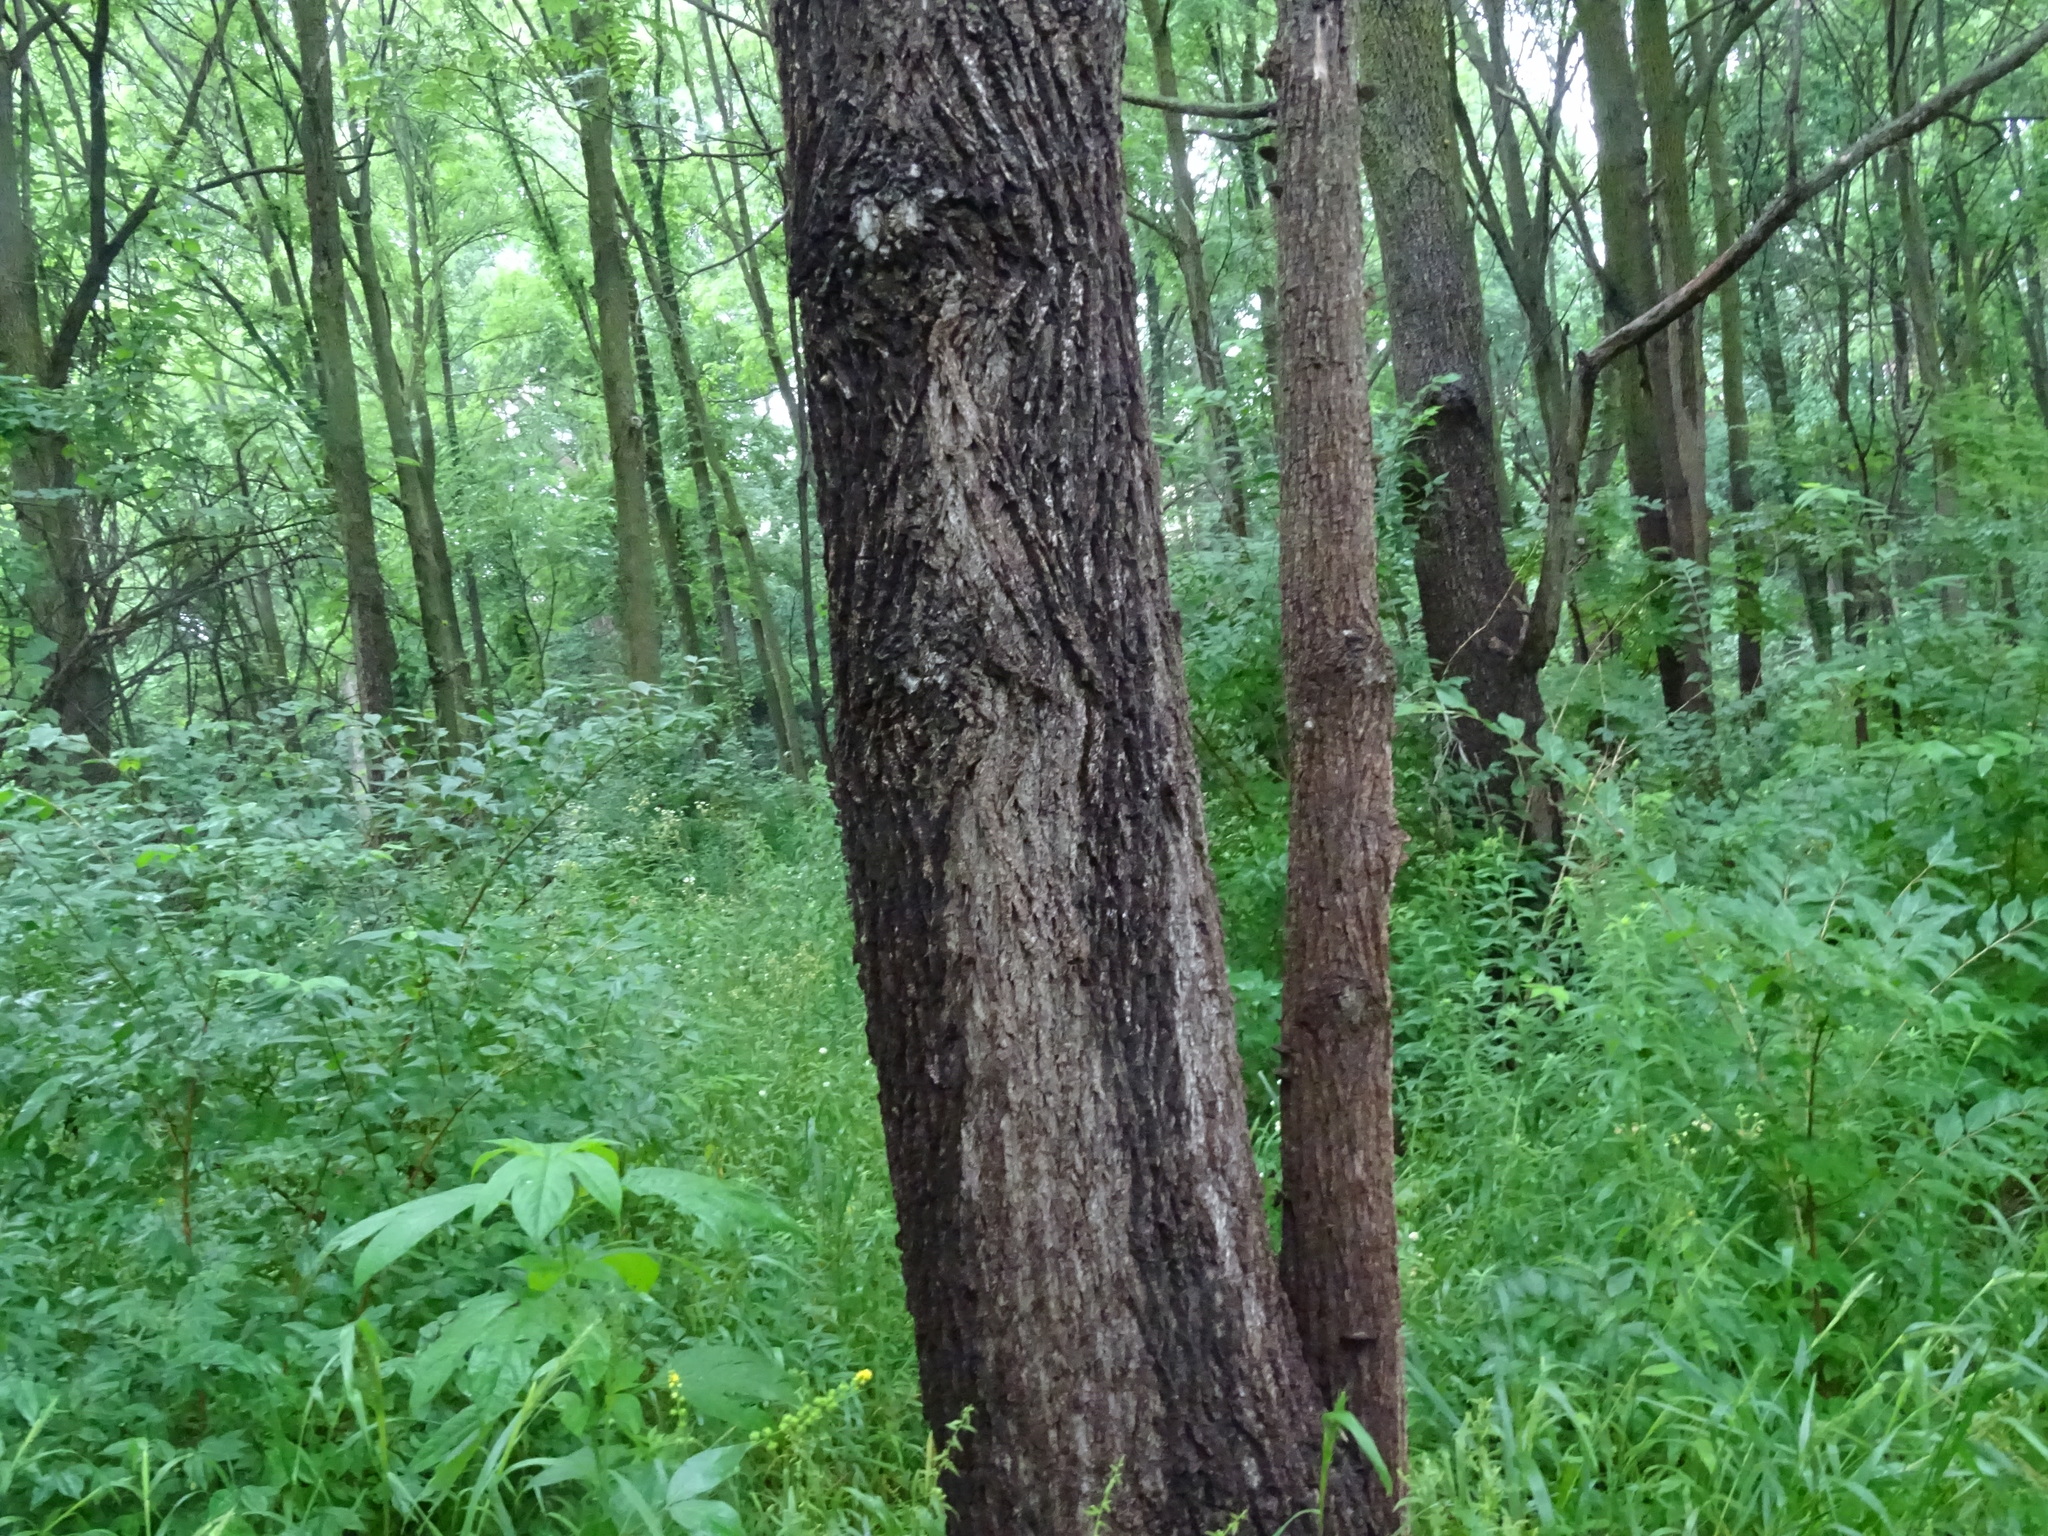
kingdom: Plantae
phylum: Tracheophyta
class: Magnoliopsida
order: Fagales
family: Juglandaceae
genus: Juglans
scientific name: Juglans nigra
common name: Black walnut
